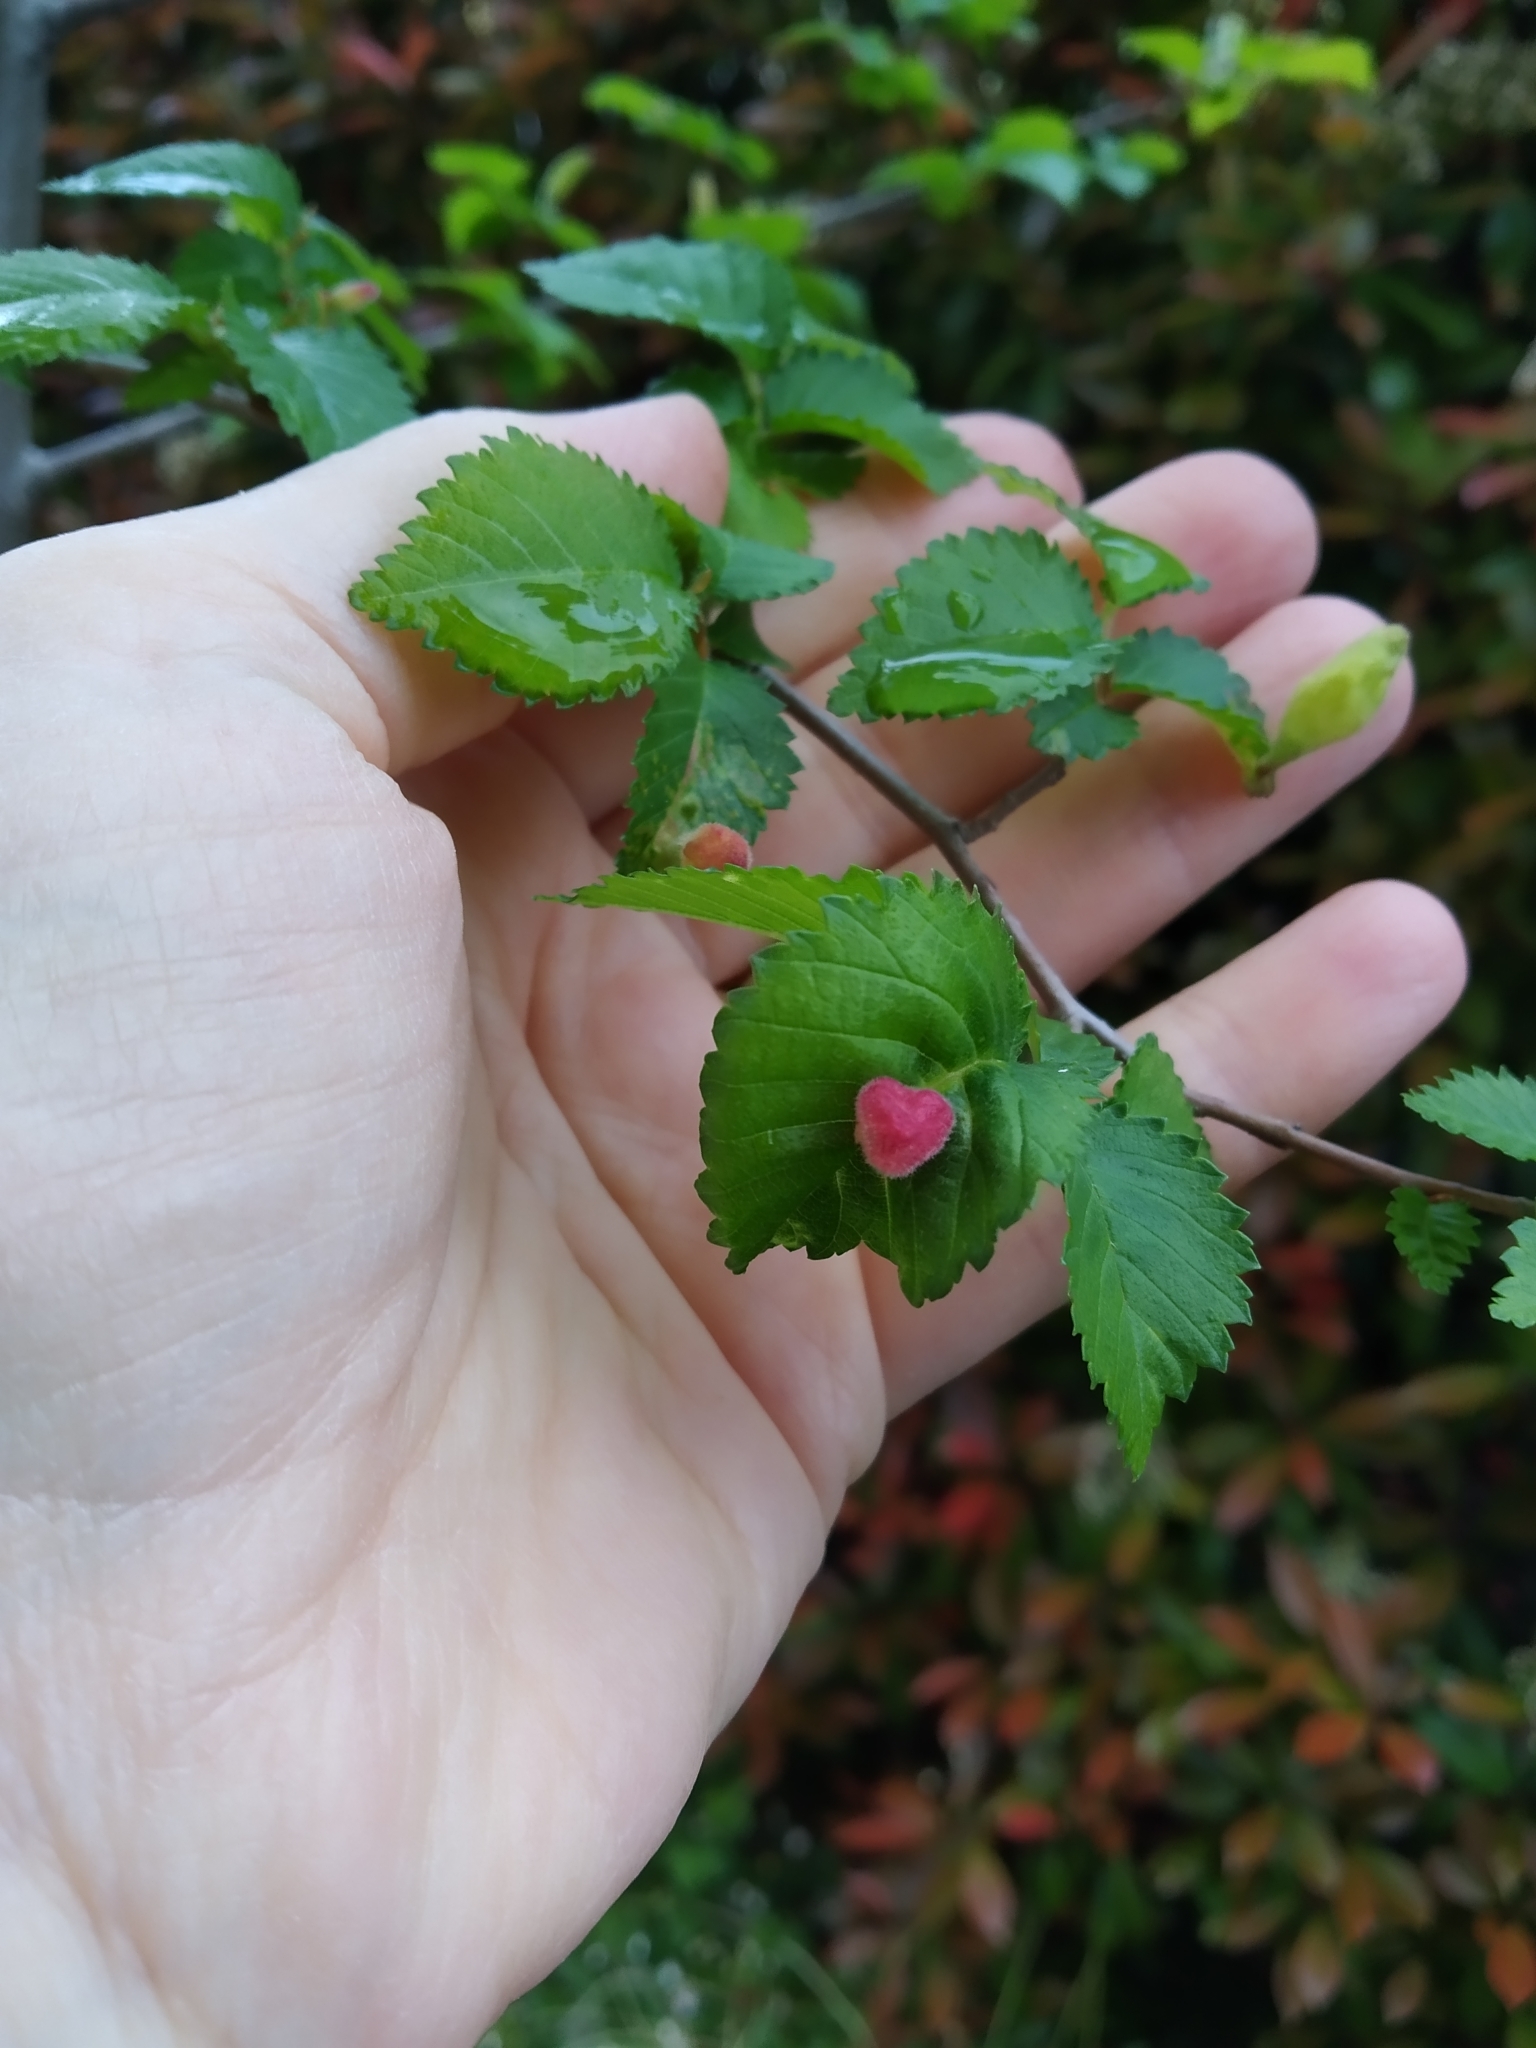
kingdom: Animalia
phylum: Arthropoda
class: Insecta
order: Hemiptera
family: Aphididae
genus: Tetraneura
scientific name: Tetraneura caerulescens
